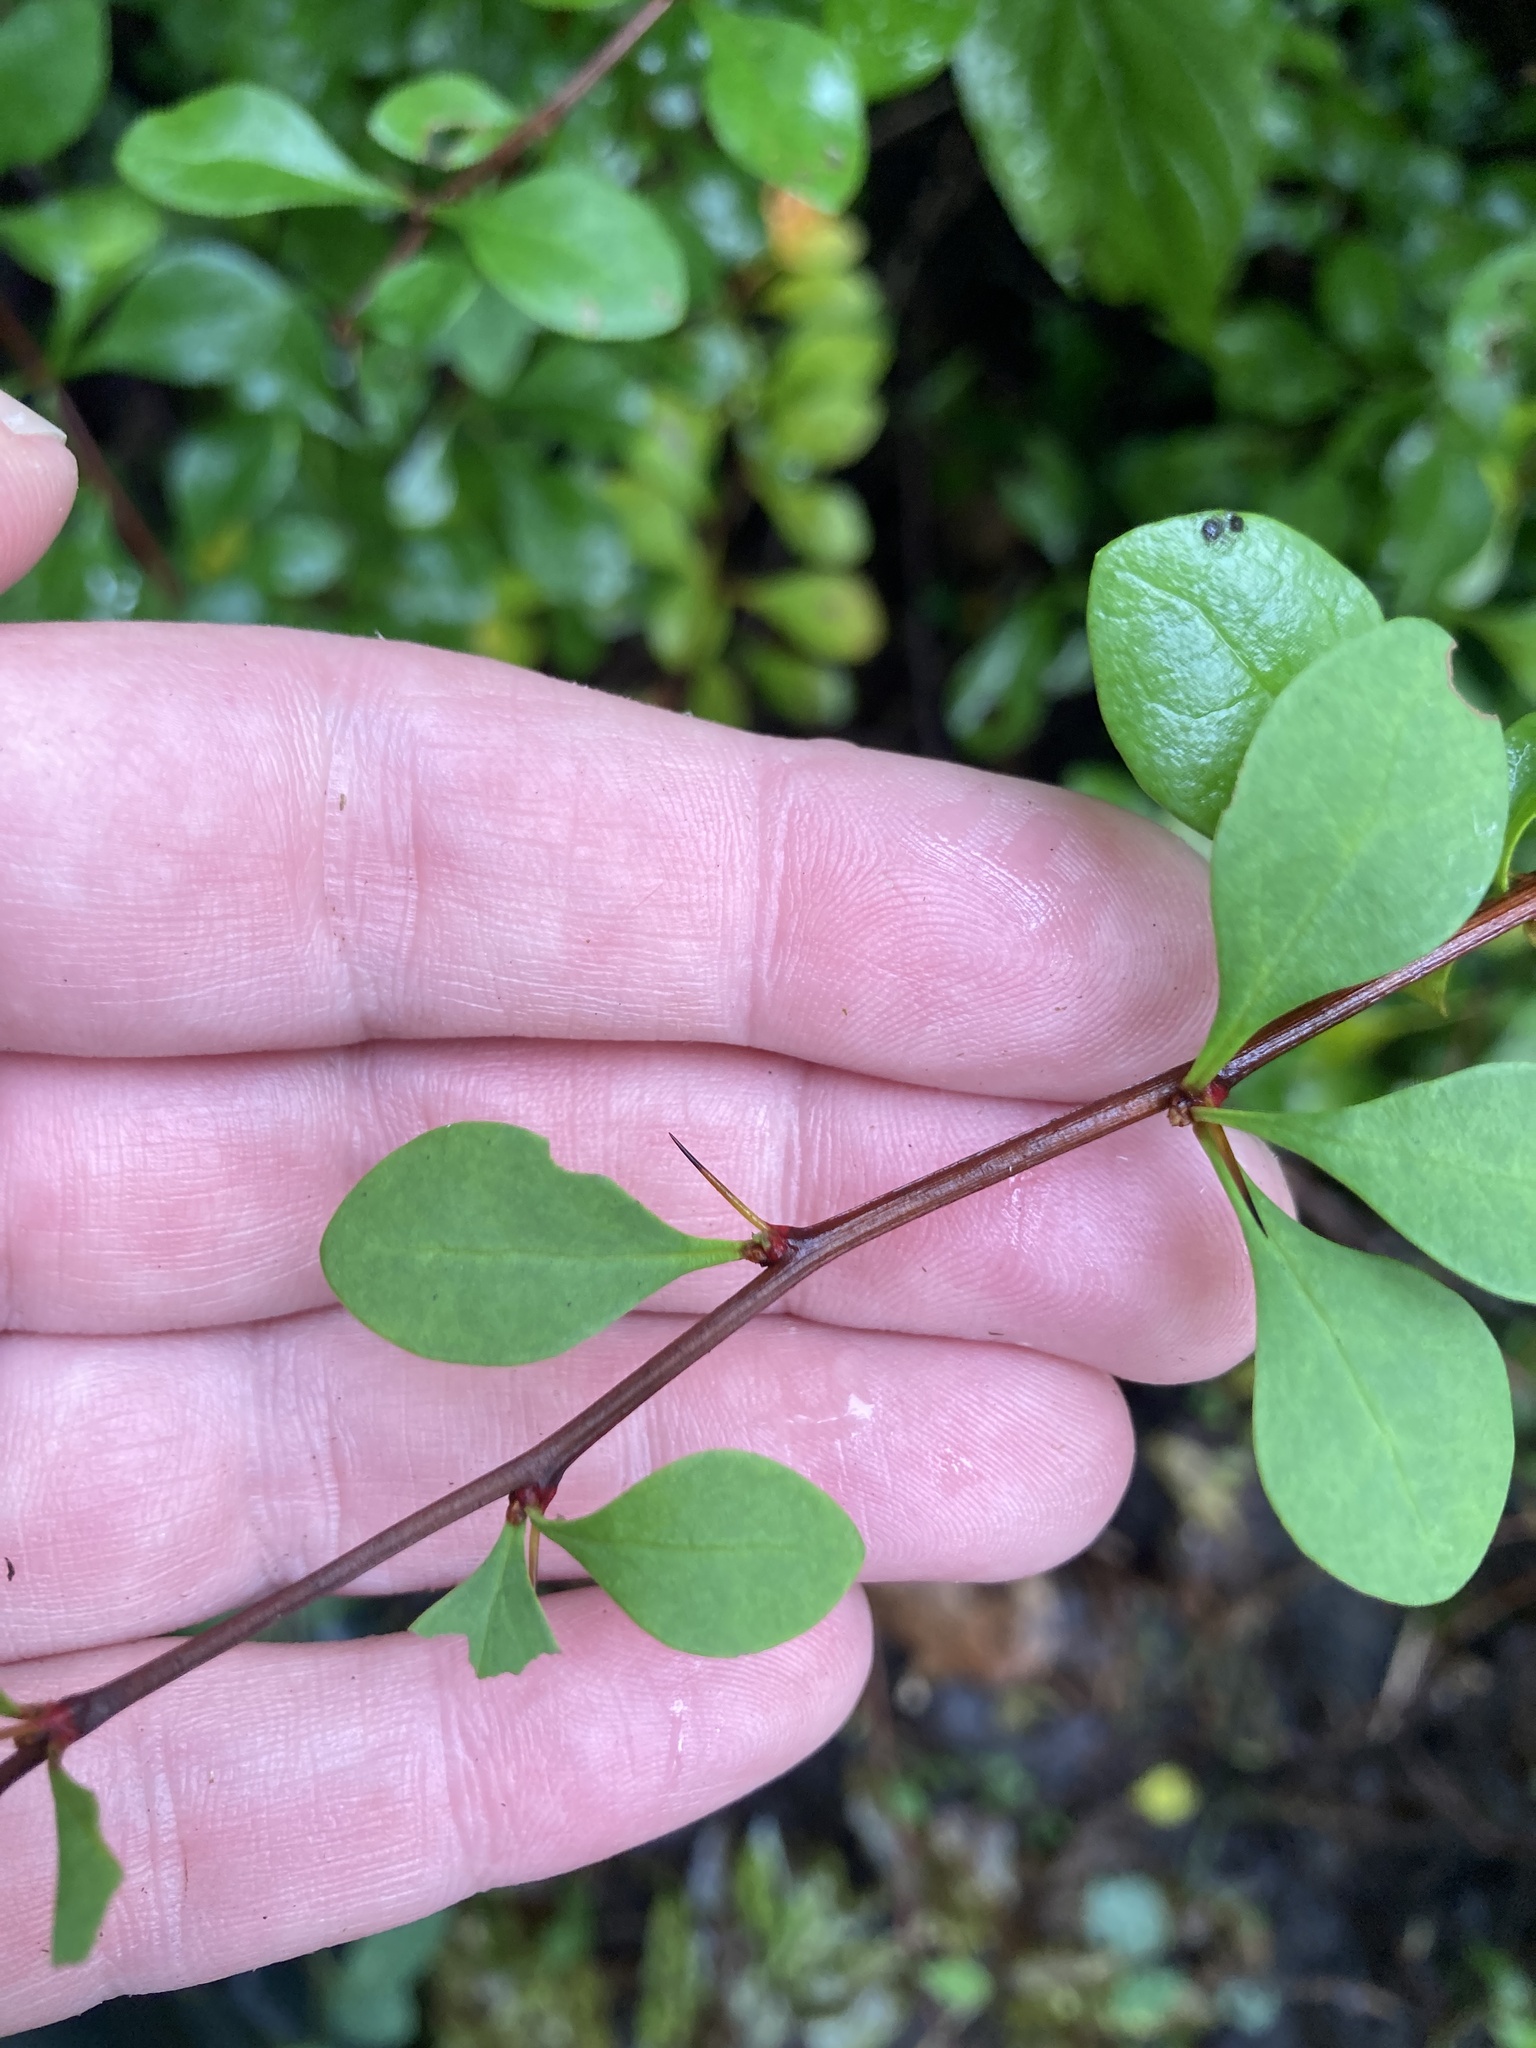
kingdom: Plantae
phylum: Tracheophyta
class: Magnoliopsida
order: Ranunculales
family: Berberidaceae
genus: Berberis
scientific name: Berberis thunbergii
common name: Japanese barberry
